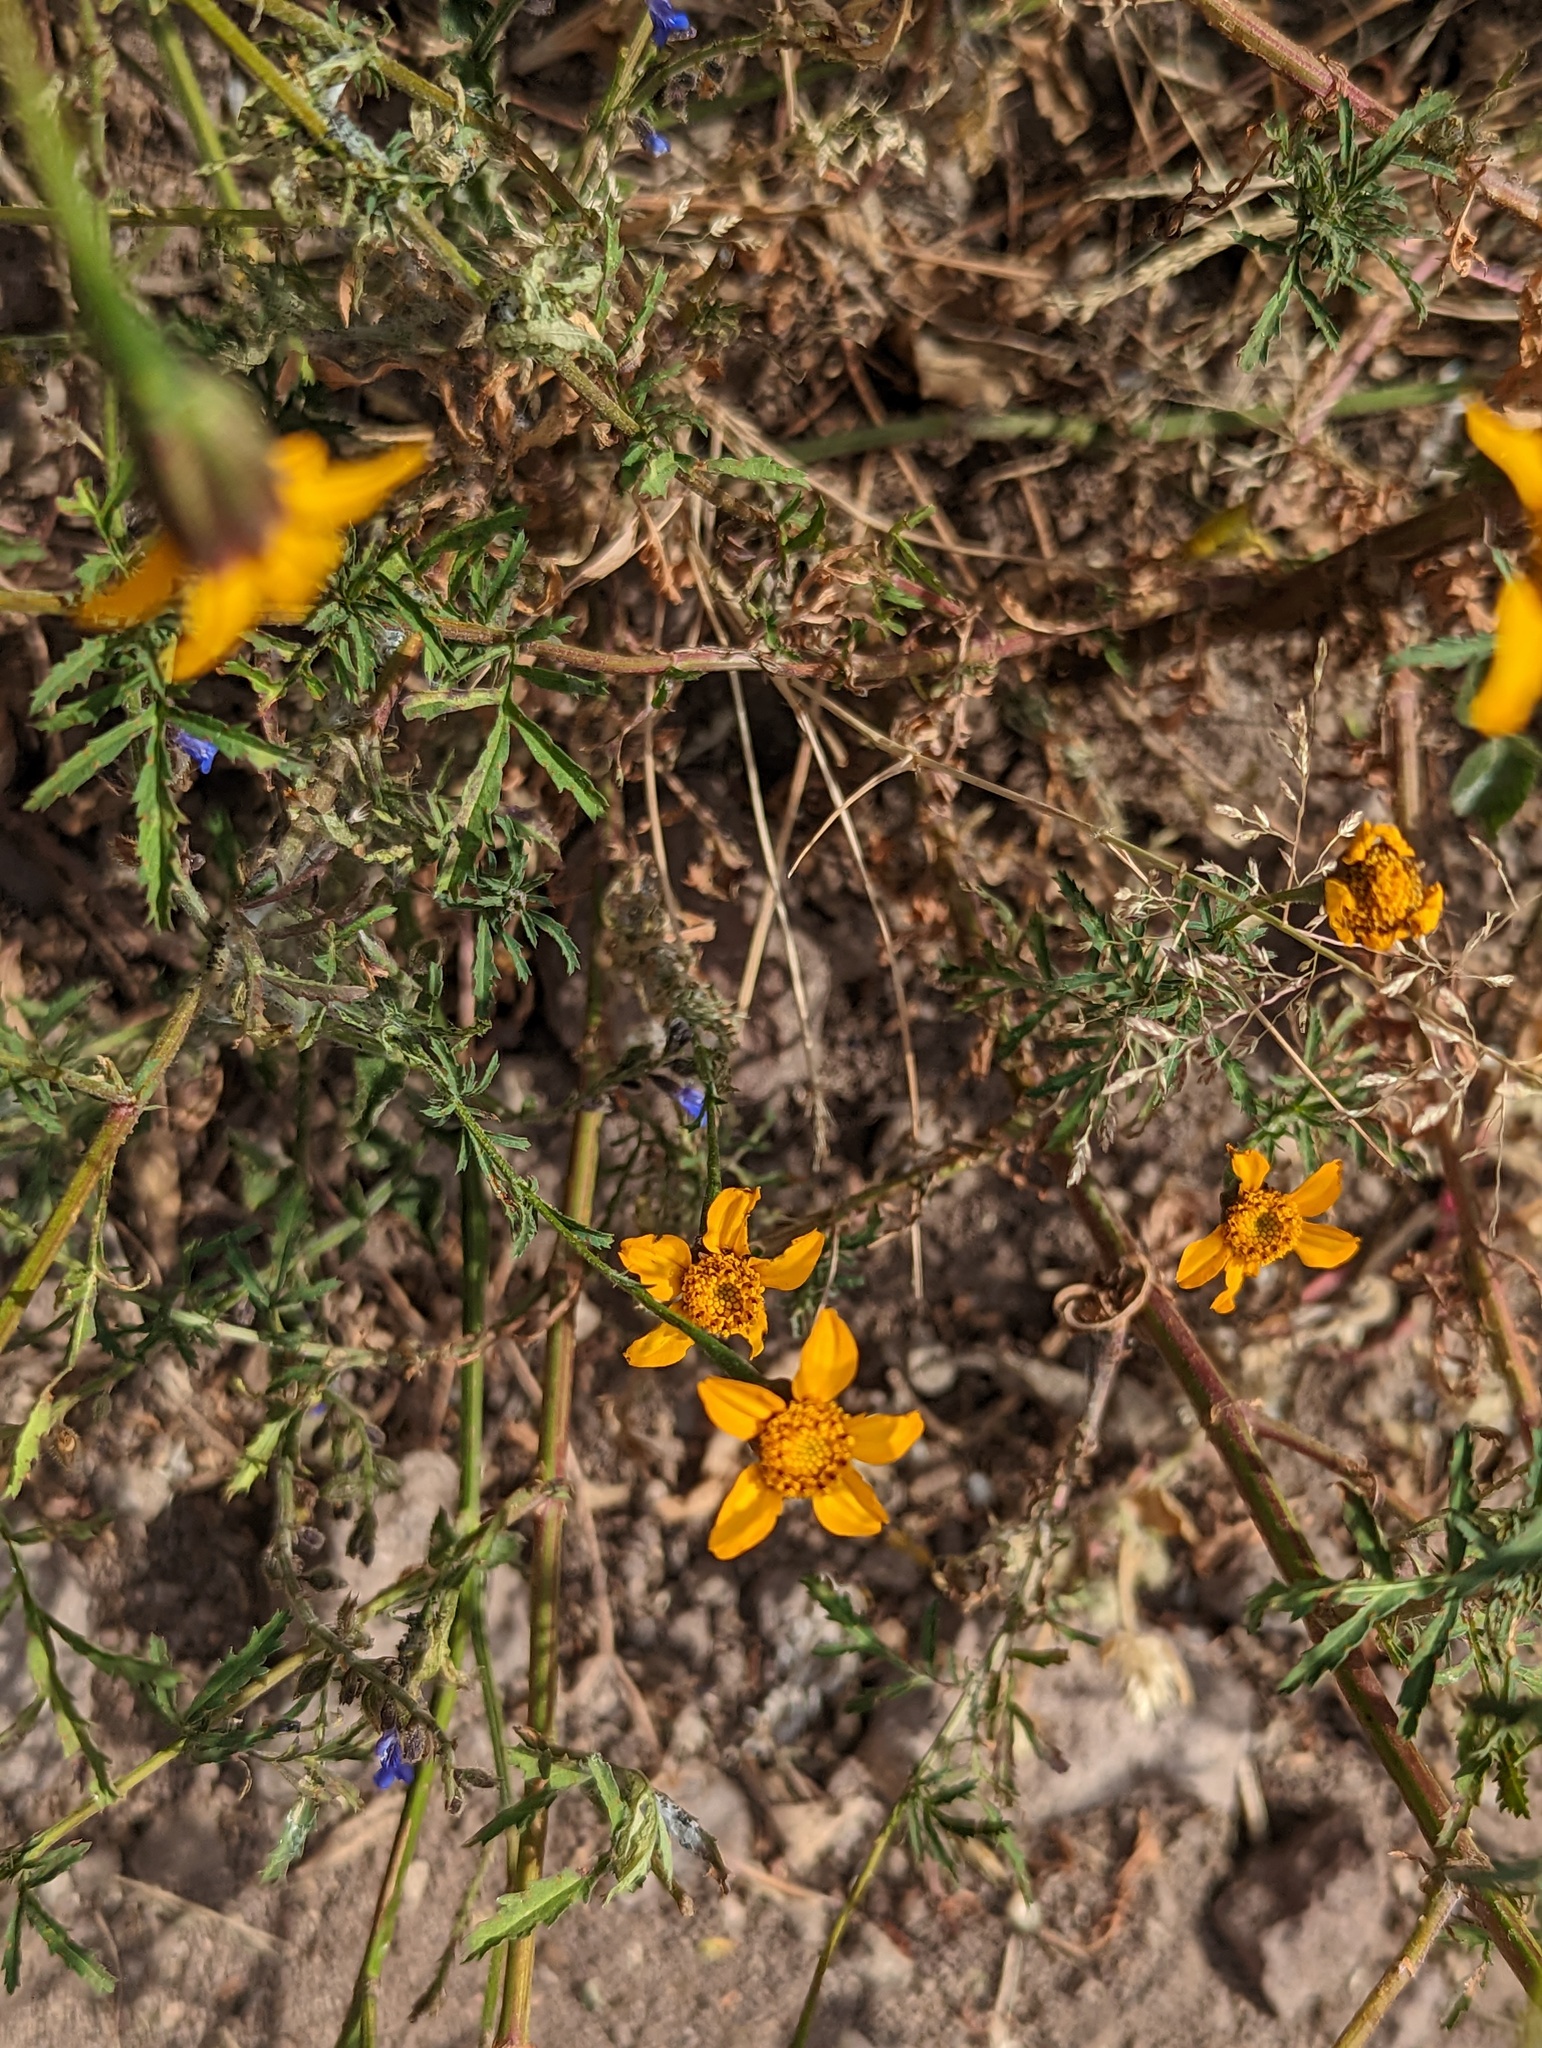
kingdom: Plantae
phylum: Tracheophyta
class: Magnoliopsida
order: Asterales
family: Asteraceae
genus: Dyssodia
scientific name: Dyssodia tagetiflora
